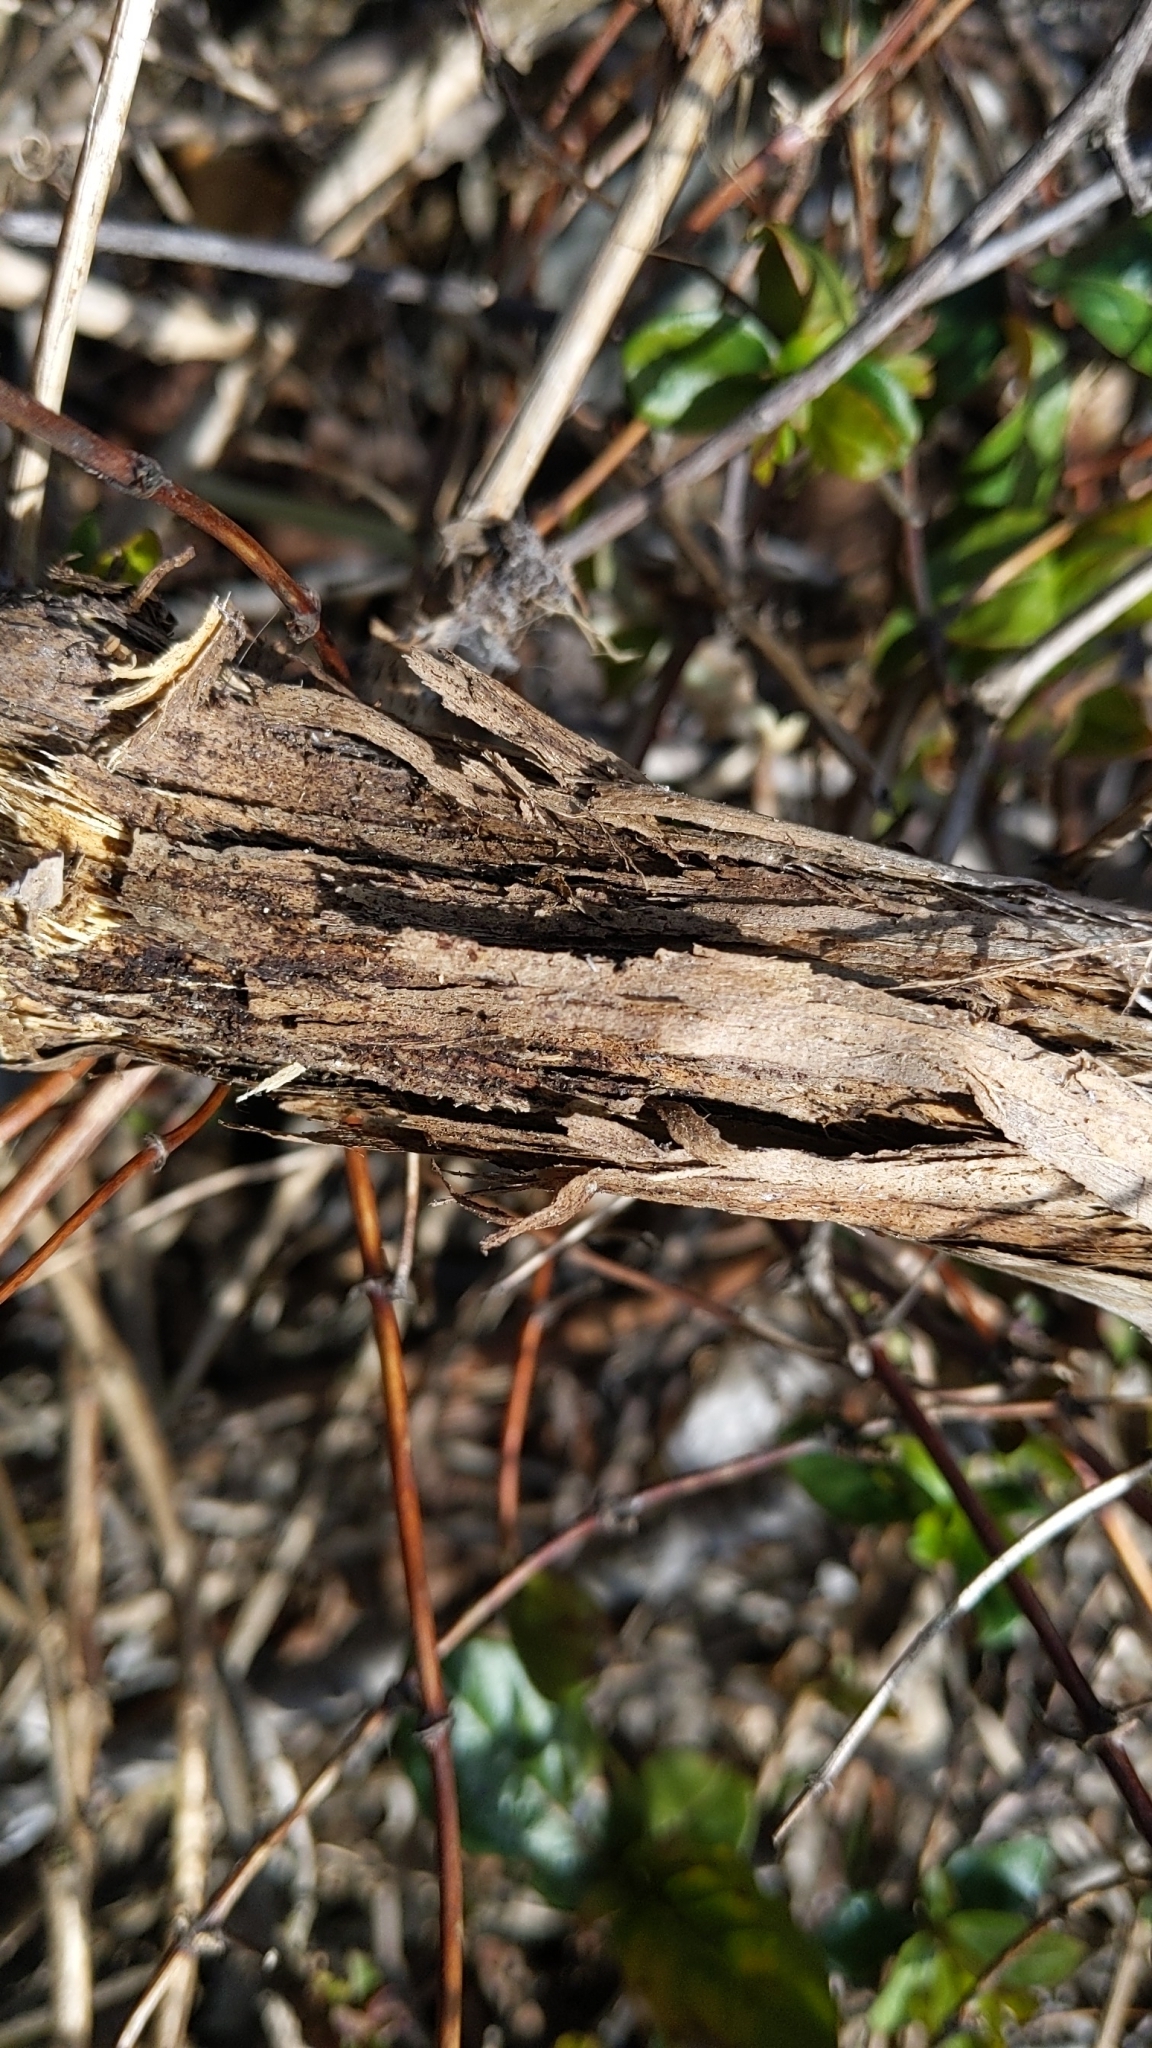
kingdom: Plantae
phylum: Tracheophyta
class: Magnoliopsida
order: Dipsacales
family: Caprifoliaceae
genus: Lonicera
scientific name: Lonicera japonica
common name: Japanese honeysuckle
